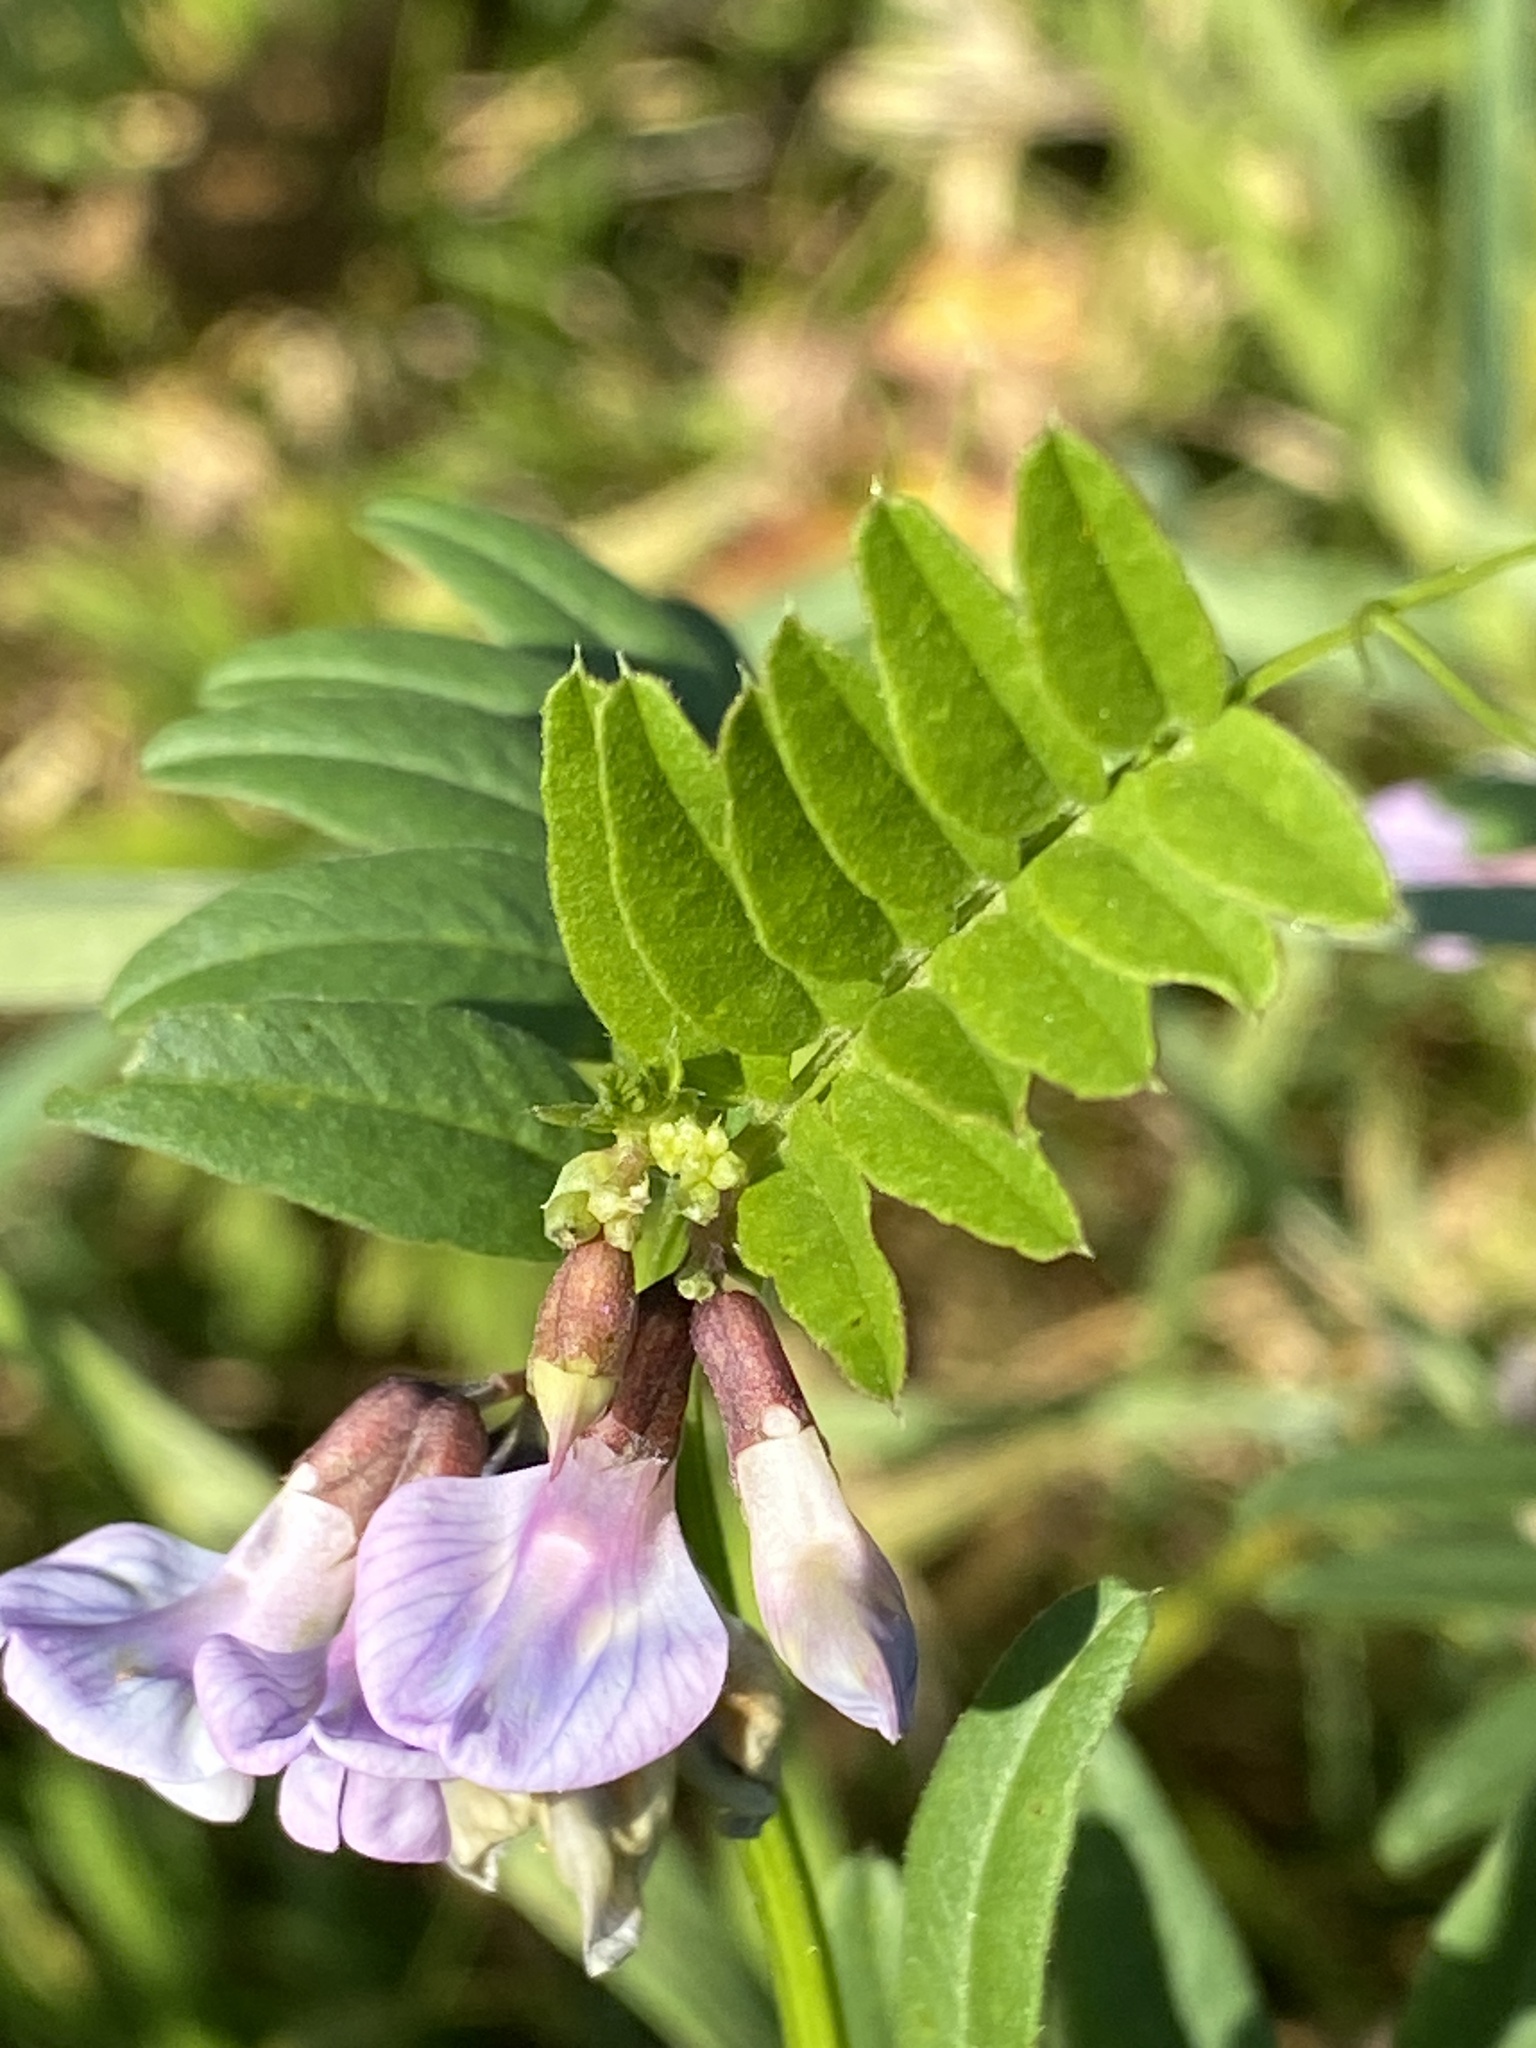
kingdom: Plantae
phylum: Tracheophyta
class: Magnoliopsida
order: Fabales
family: Fabaceae
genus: Vicia
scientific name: Vicia sepium
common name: Bush vetch
